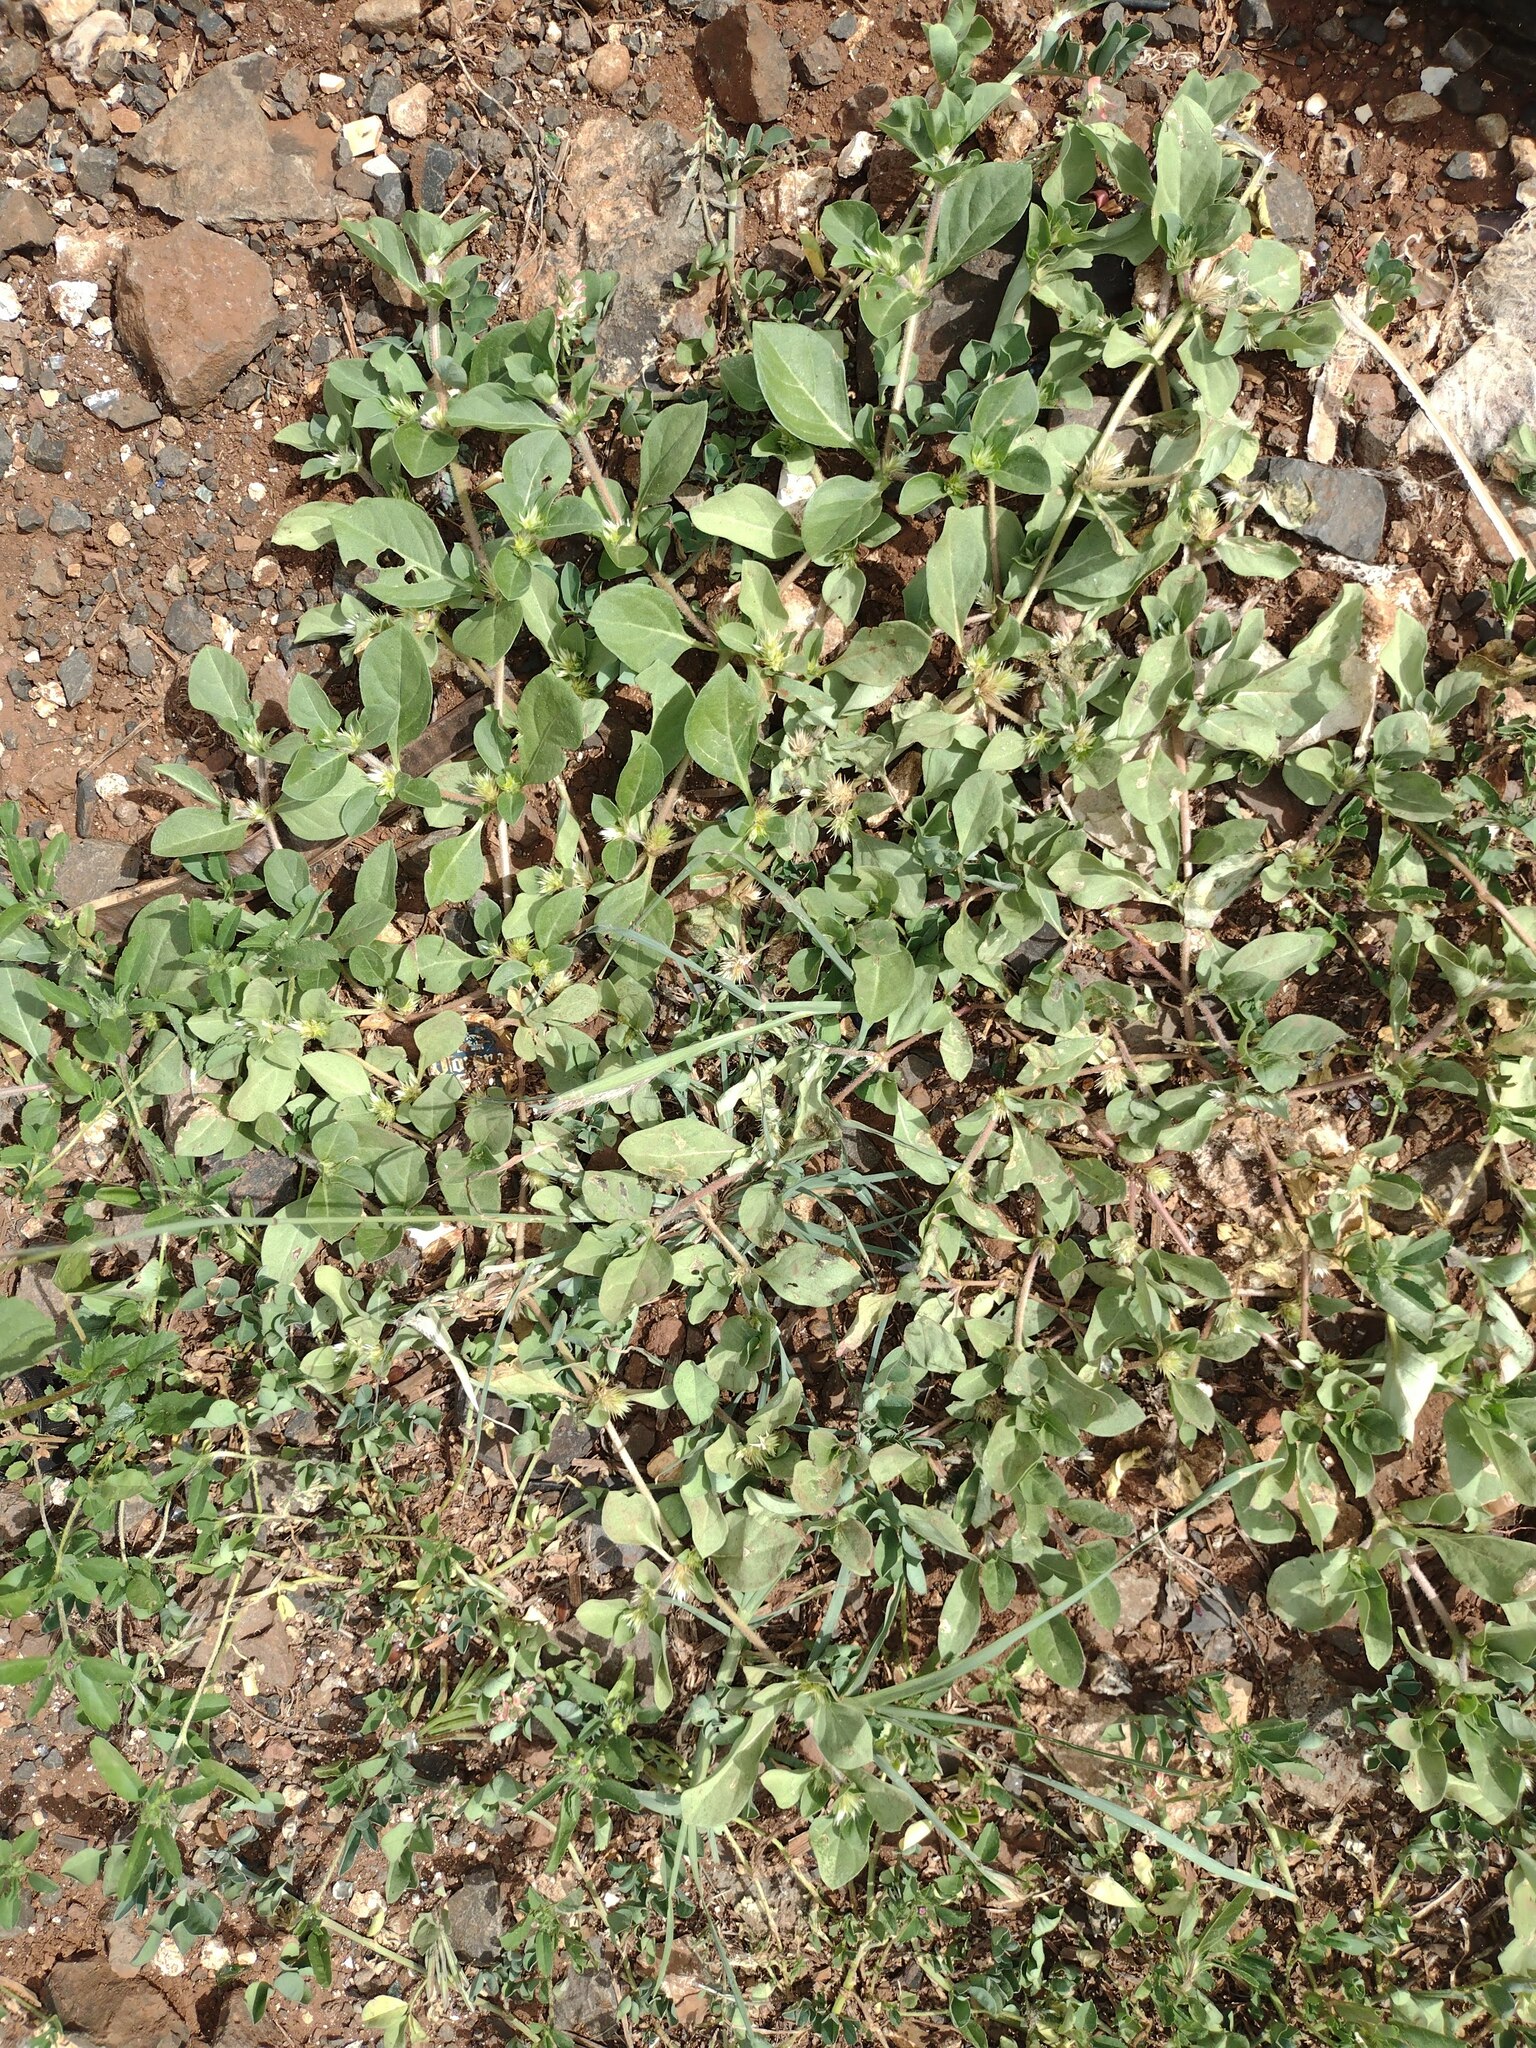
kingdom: Plantae
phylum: Tracheophyta
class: Magnoliopsida
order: Caryophyllales
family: Amaranthaceae
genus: Alternanthera
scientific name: Alternanthera pungens
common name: Khakiweed
